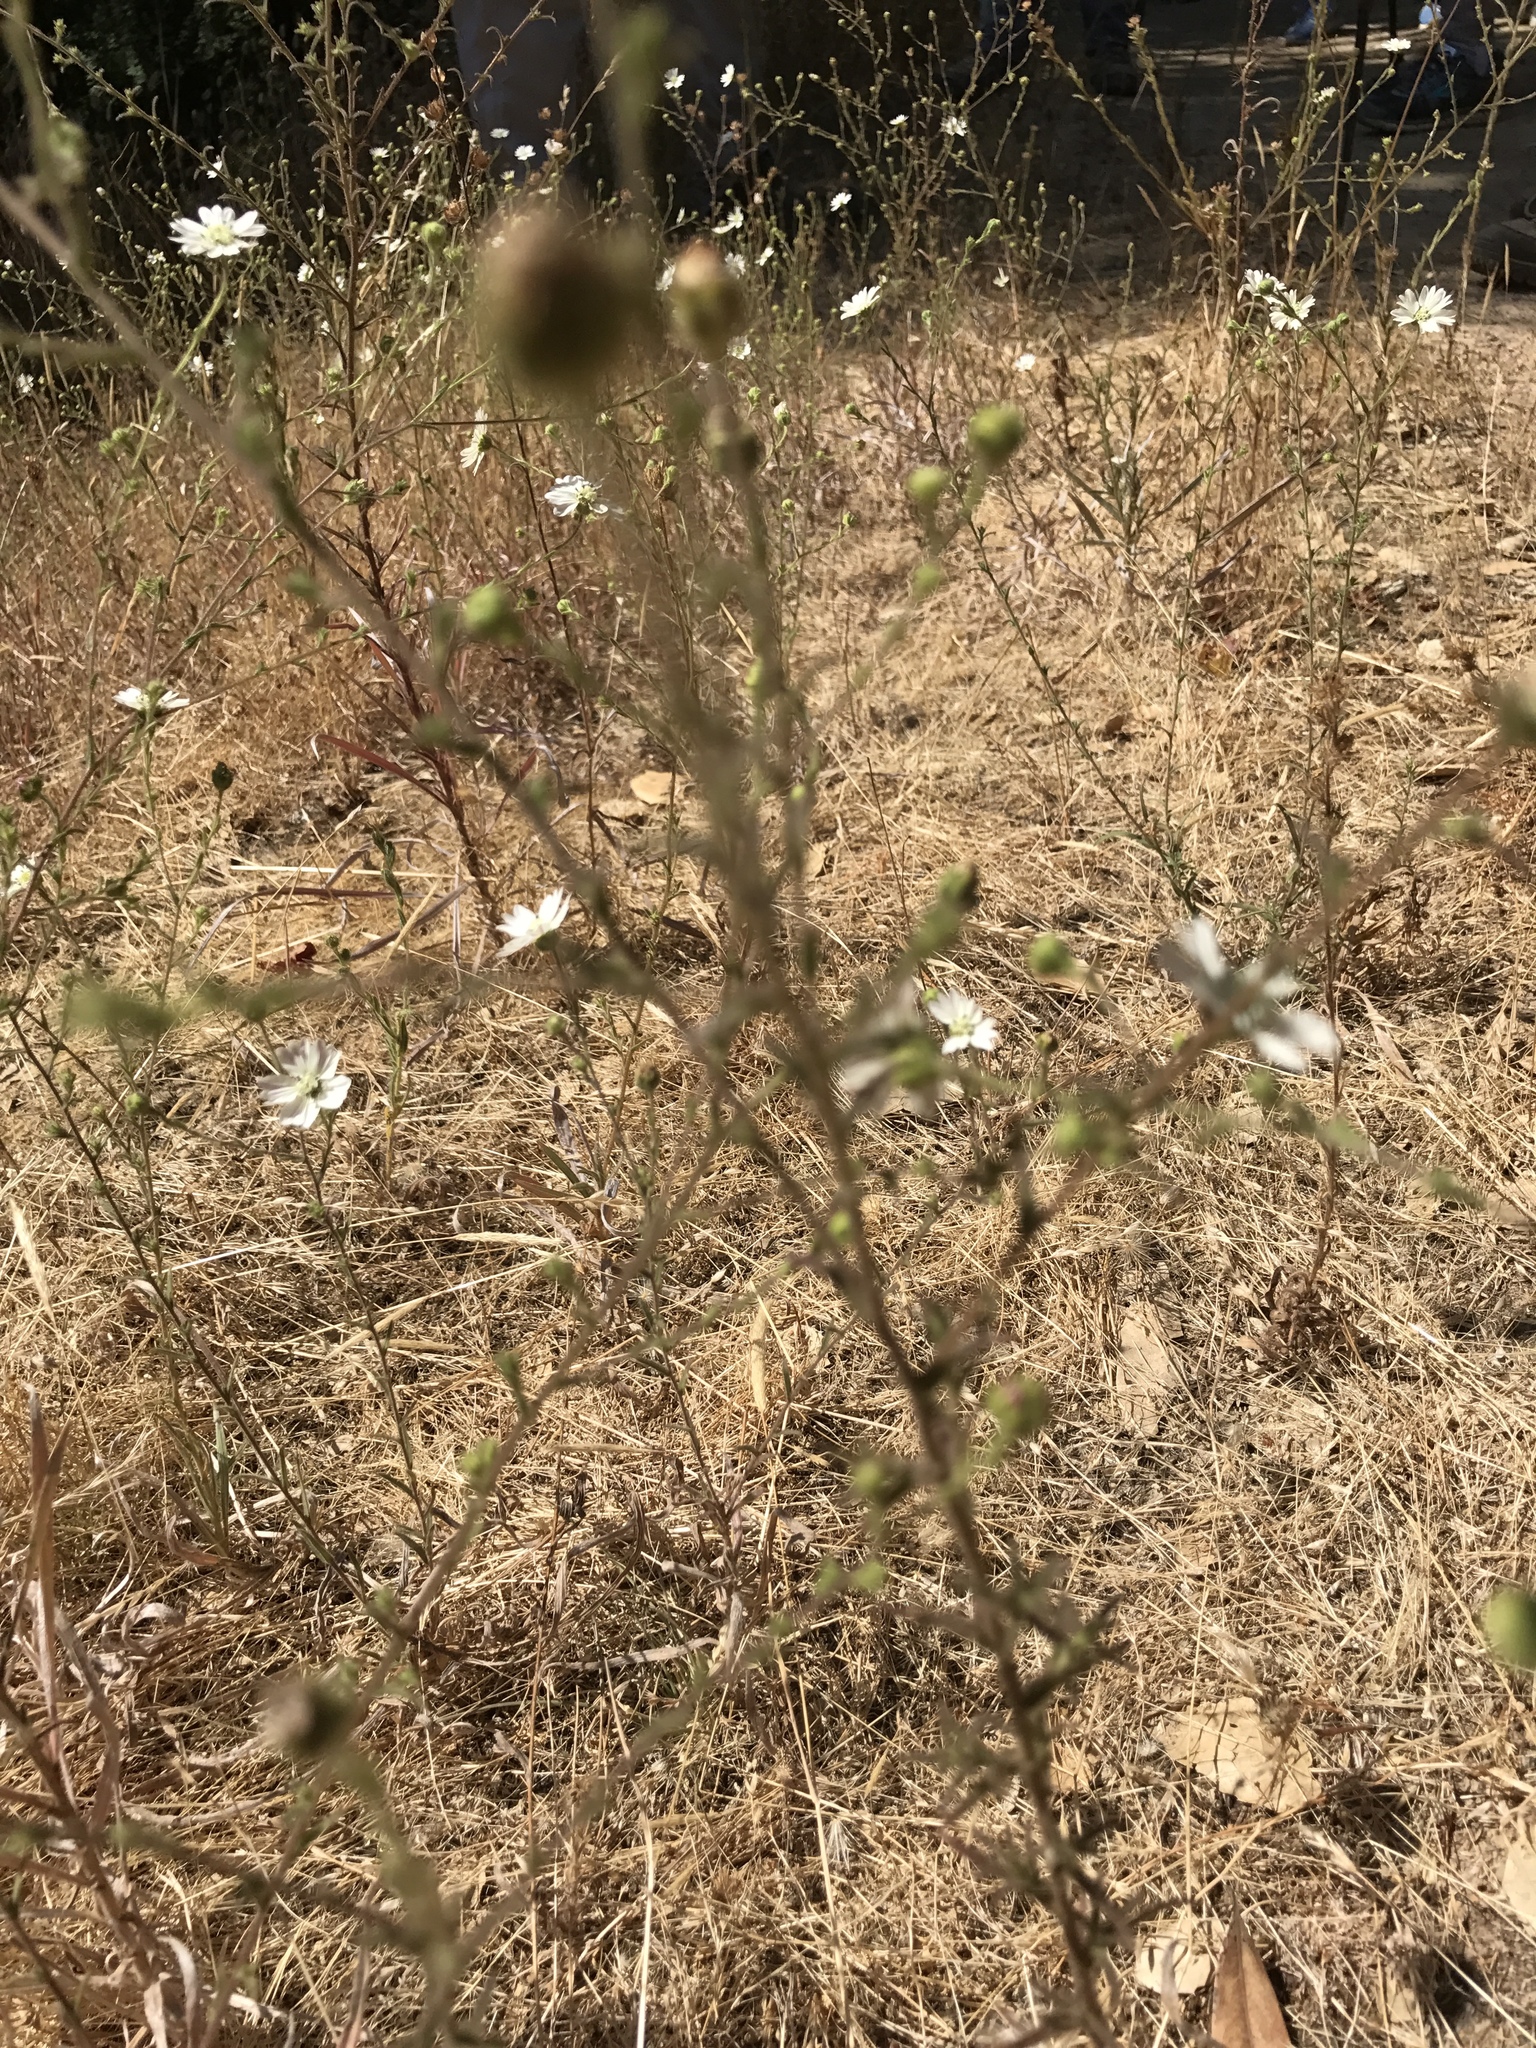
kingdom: Plantae
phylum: Tracheophyta
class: Magnoliopsida
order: Asterales
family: Asteraceae
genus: Hemizonia
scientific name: Hemizonia congesta
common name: Hayfield tarweed
